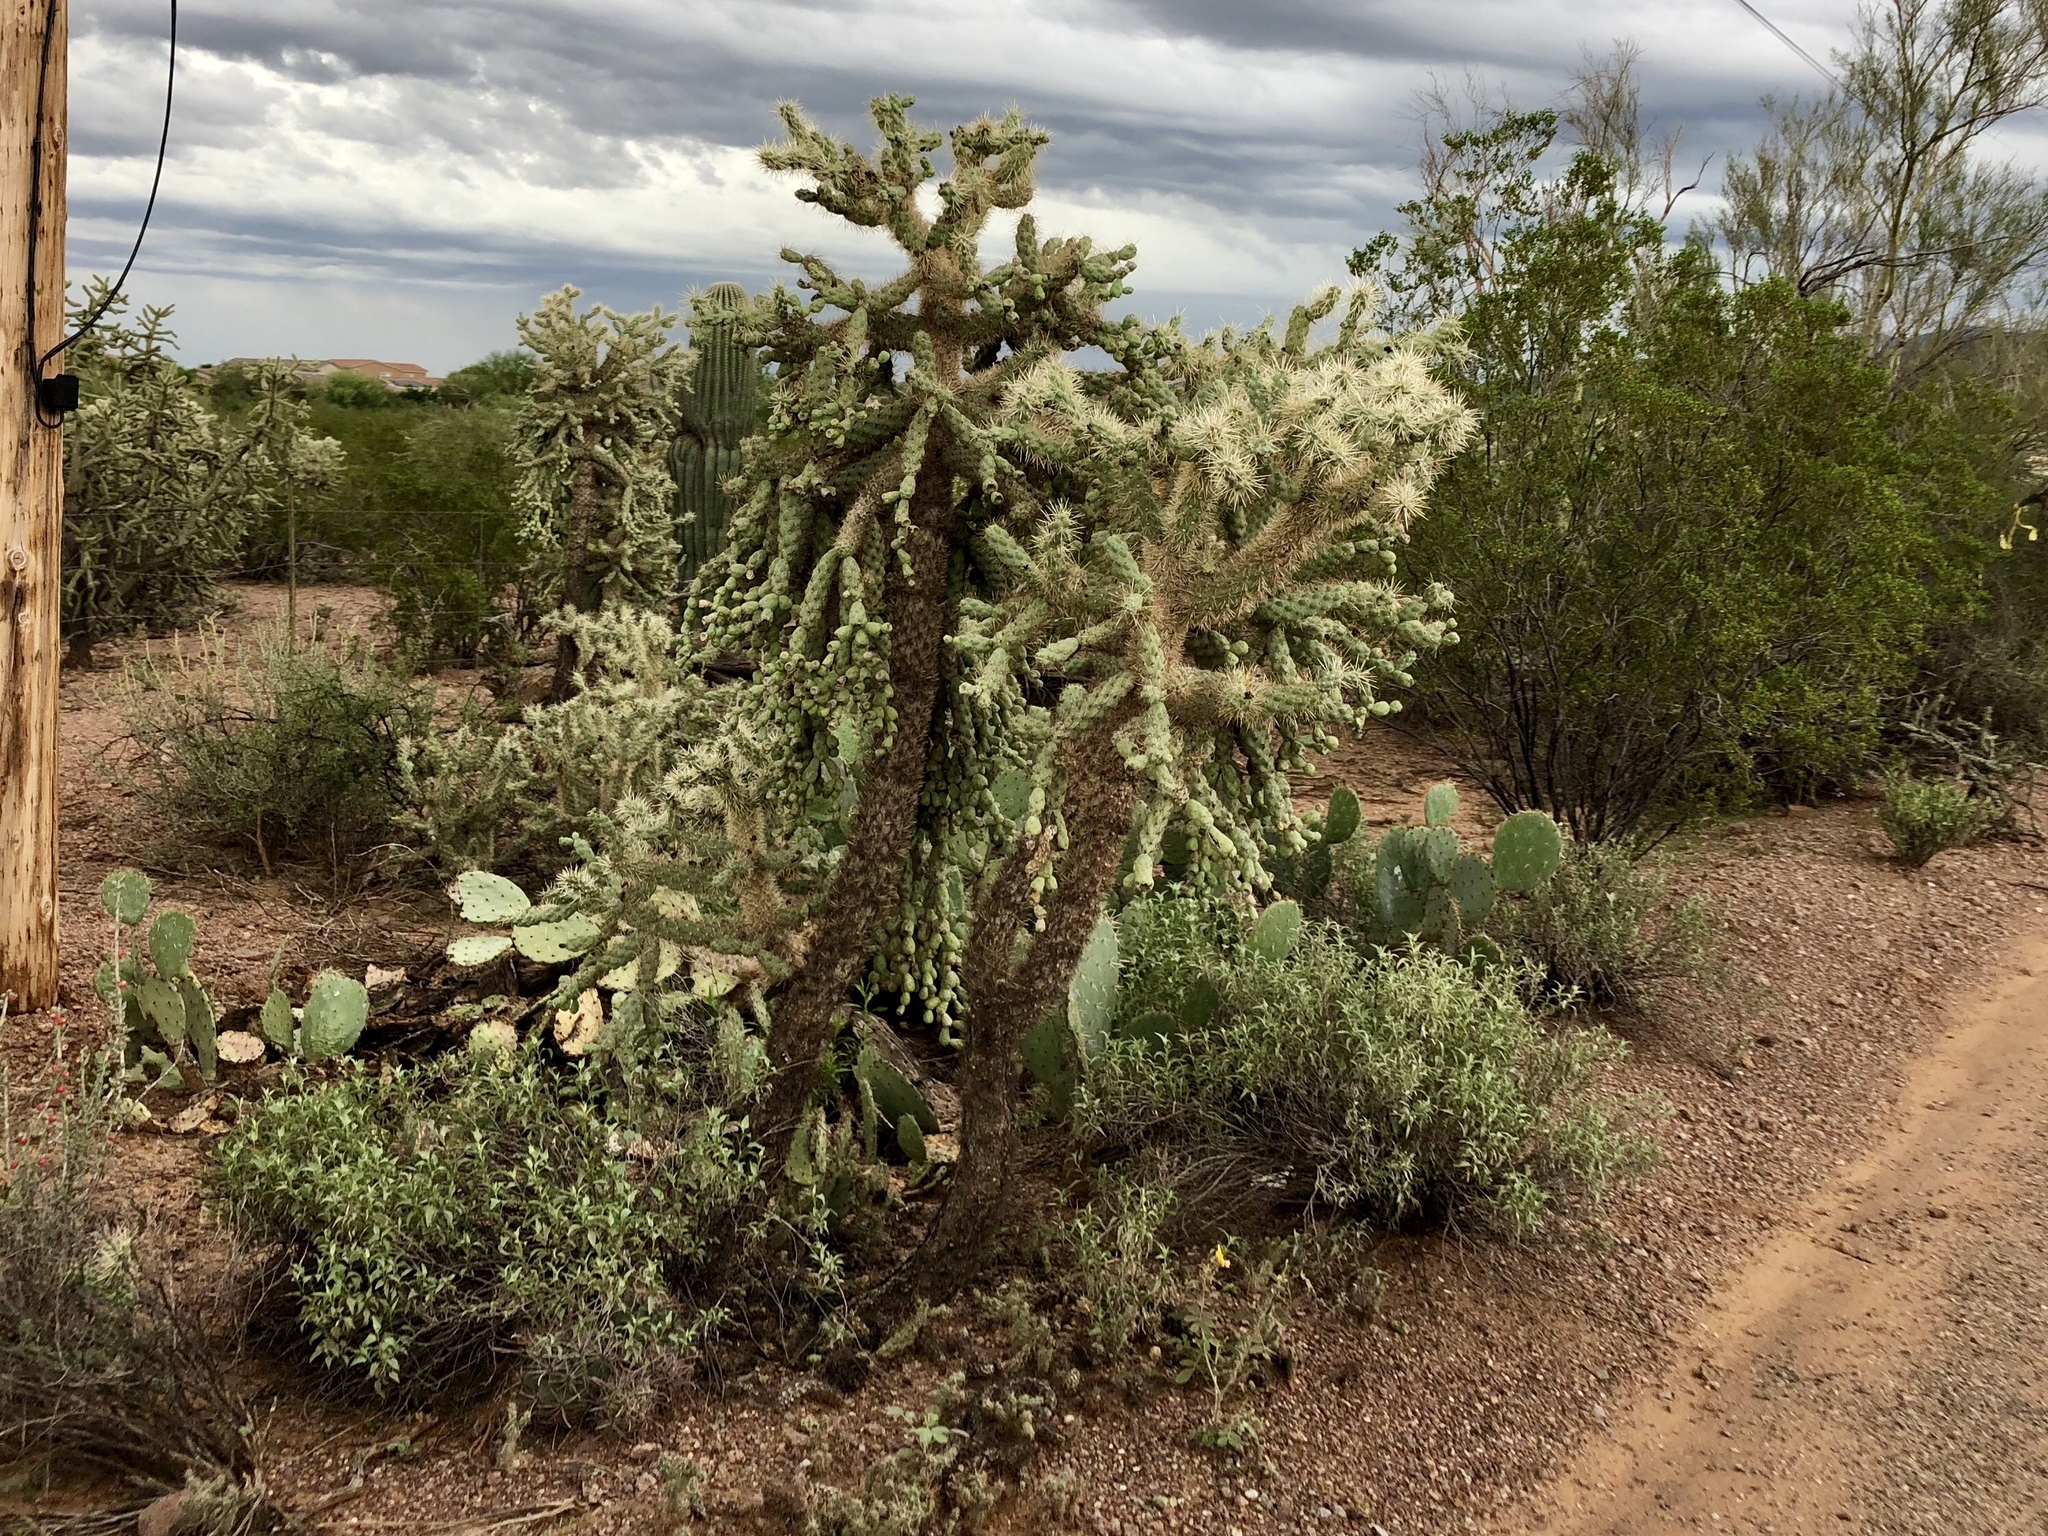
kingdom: Plantae
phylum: Tracheophyta
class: Magnoliopsida
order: Caryophyllales
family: Cactaceae
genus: Cylindropuntia
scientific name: Cylindropuntia fulgida
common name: Jumping cholla
